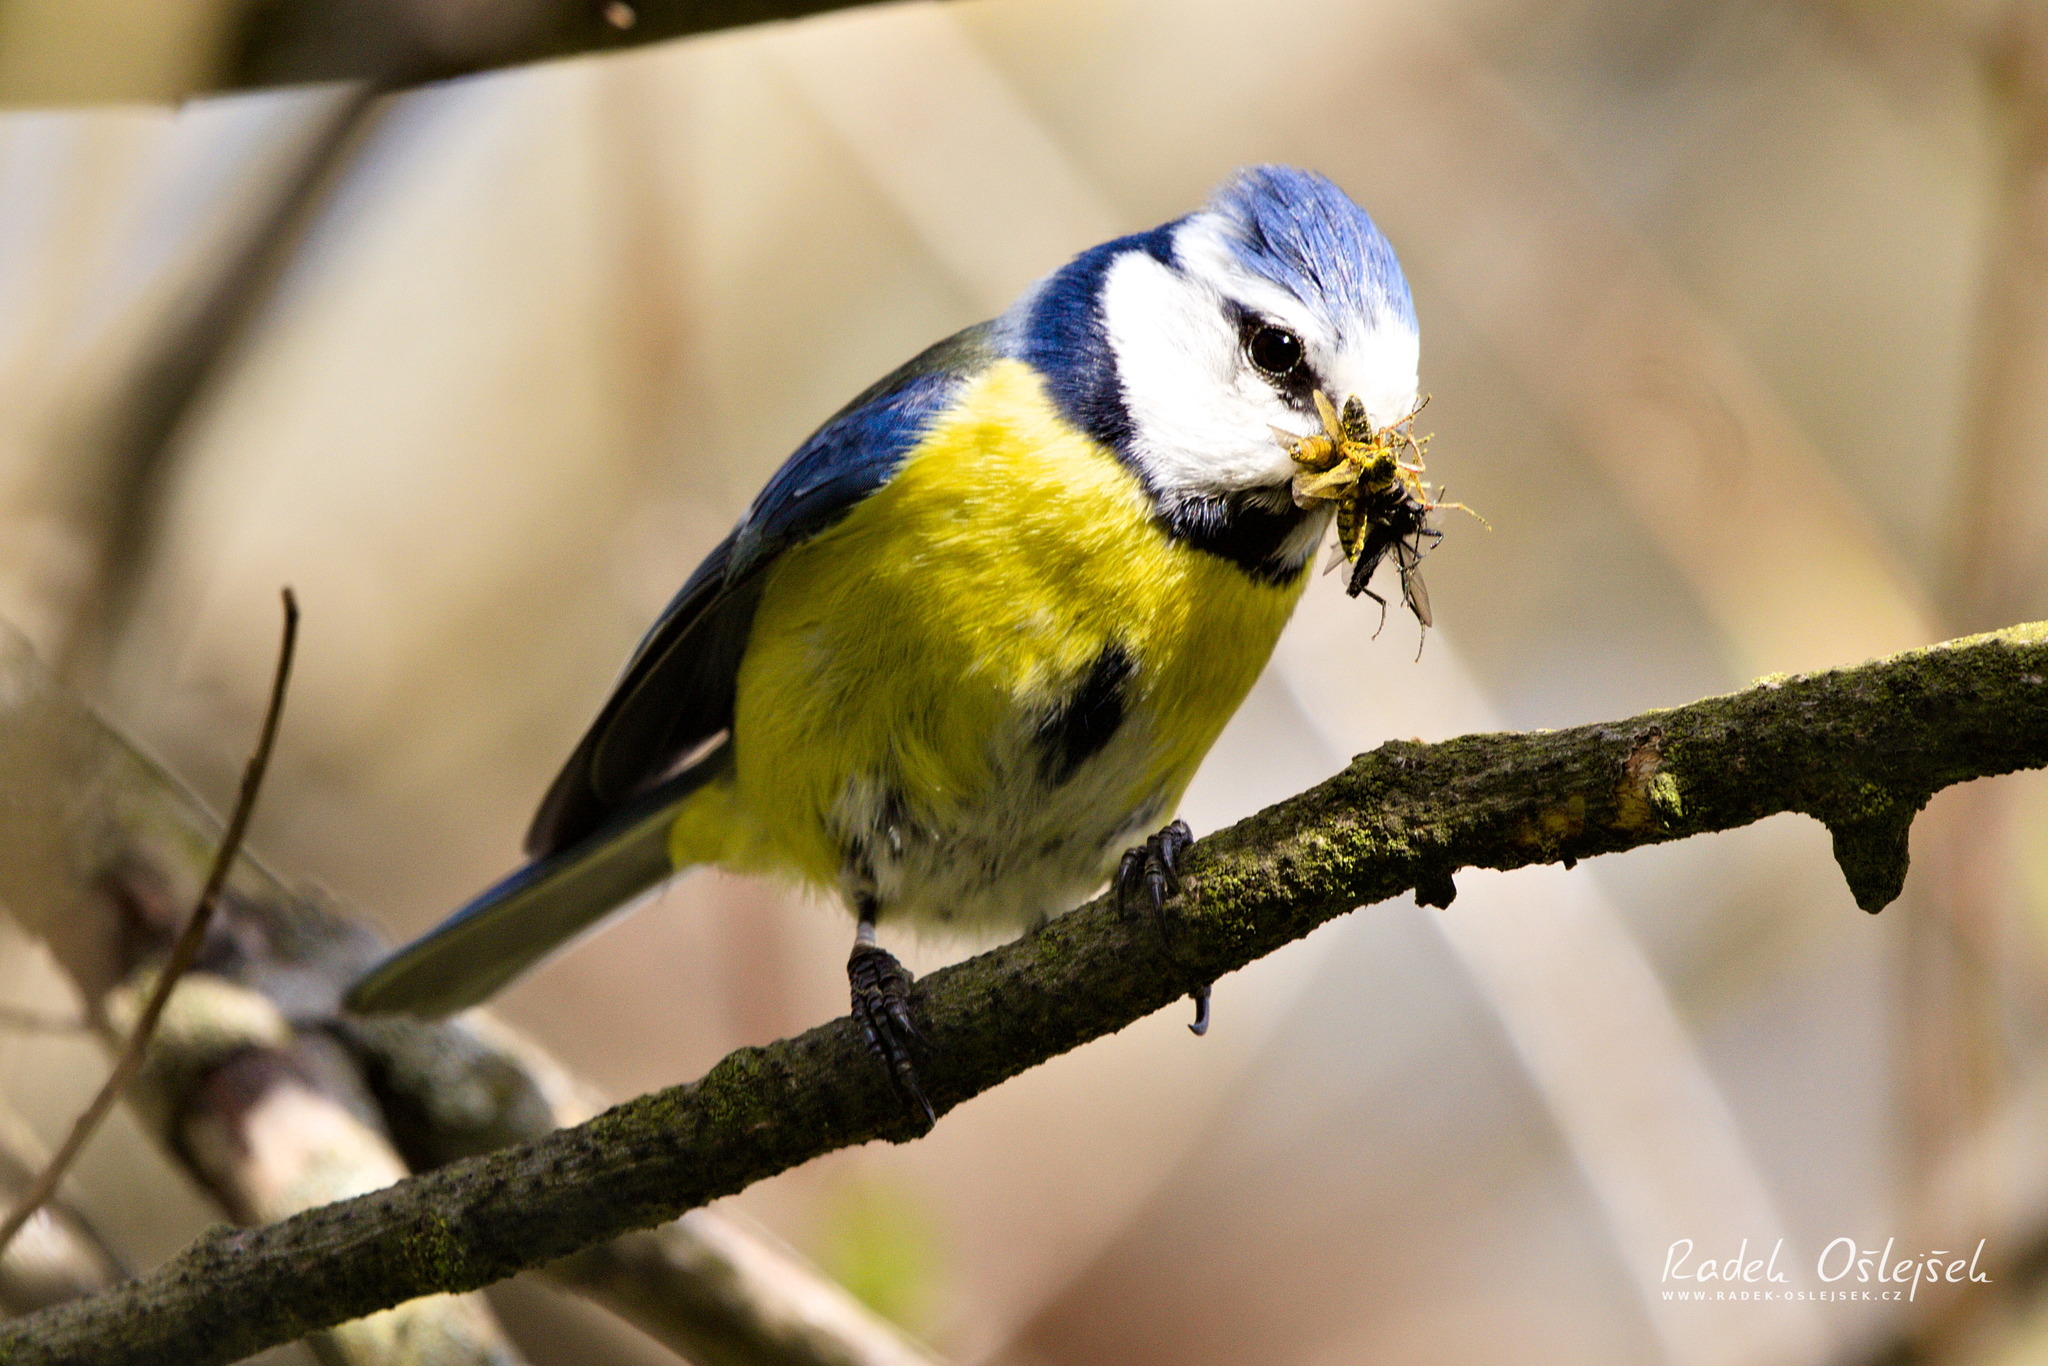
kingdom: Animalia
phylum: Chordata
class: Aves
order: Passeriformes
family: Paridae
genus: Cyanistes
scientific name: Cyanistes caeruleus
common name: Eurasian blue tit
